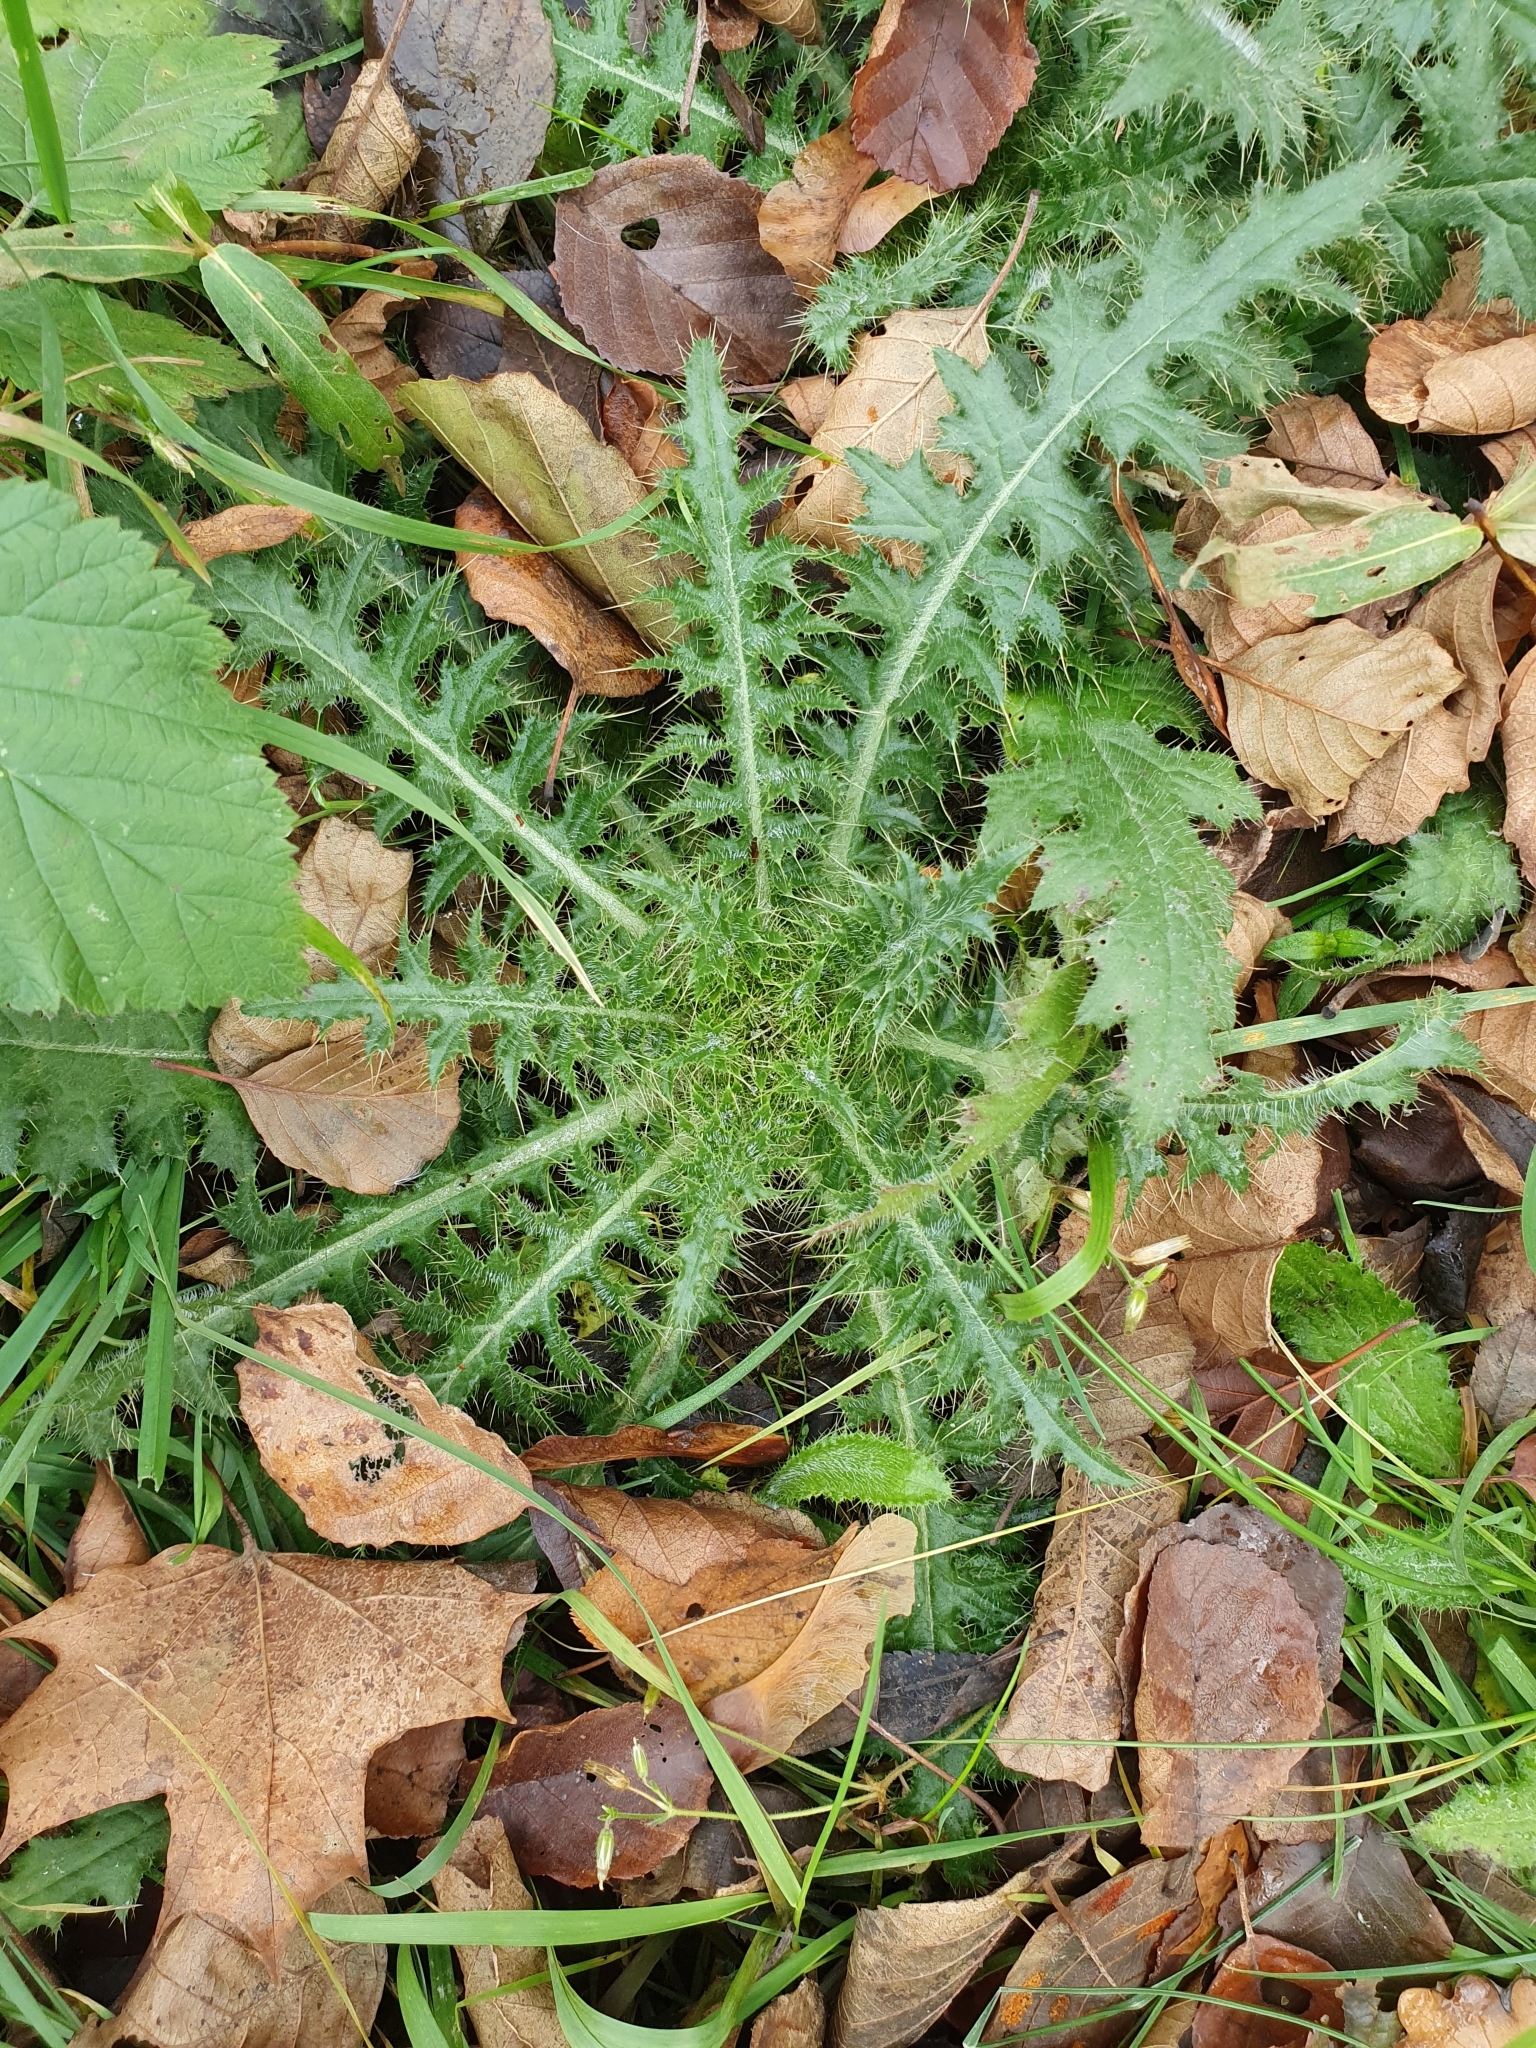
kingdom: Plantae
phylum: Tracheophyta
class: Magnoliopsida
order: Asterales
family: Asteraceae
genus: Cirsium
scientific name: Cirsium palustre
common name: Marsh thistle
